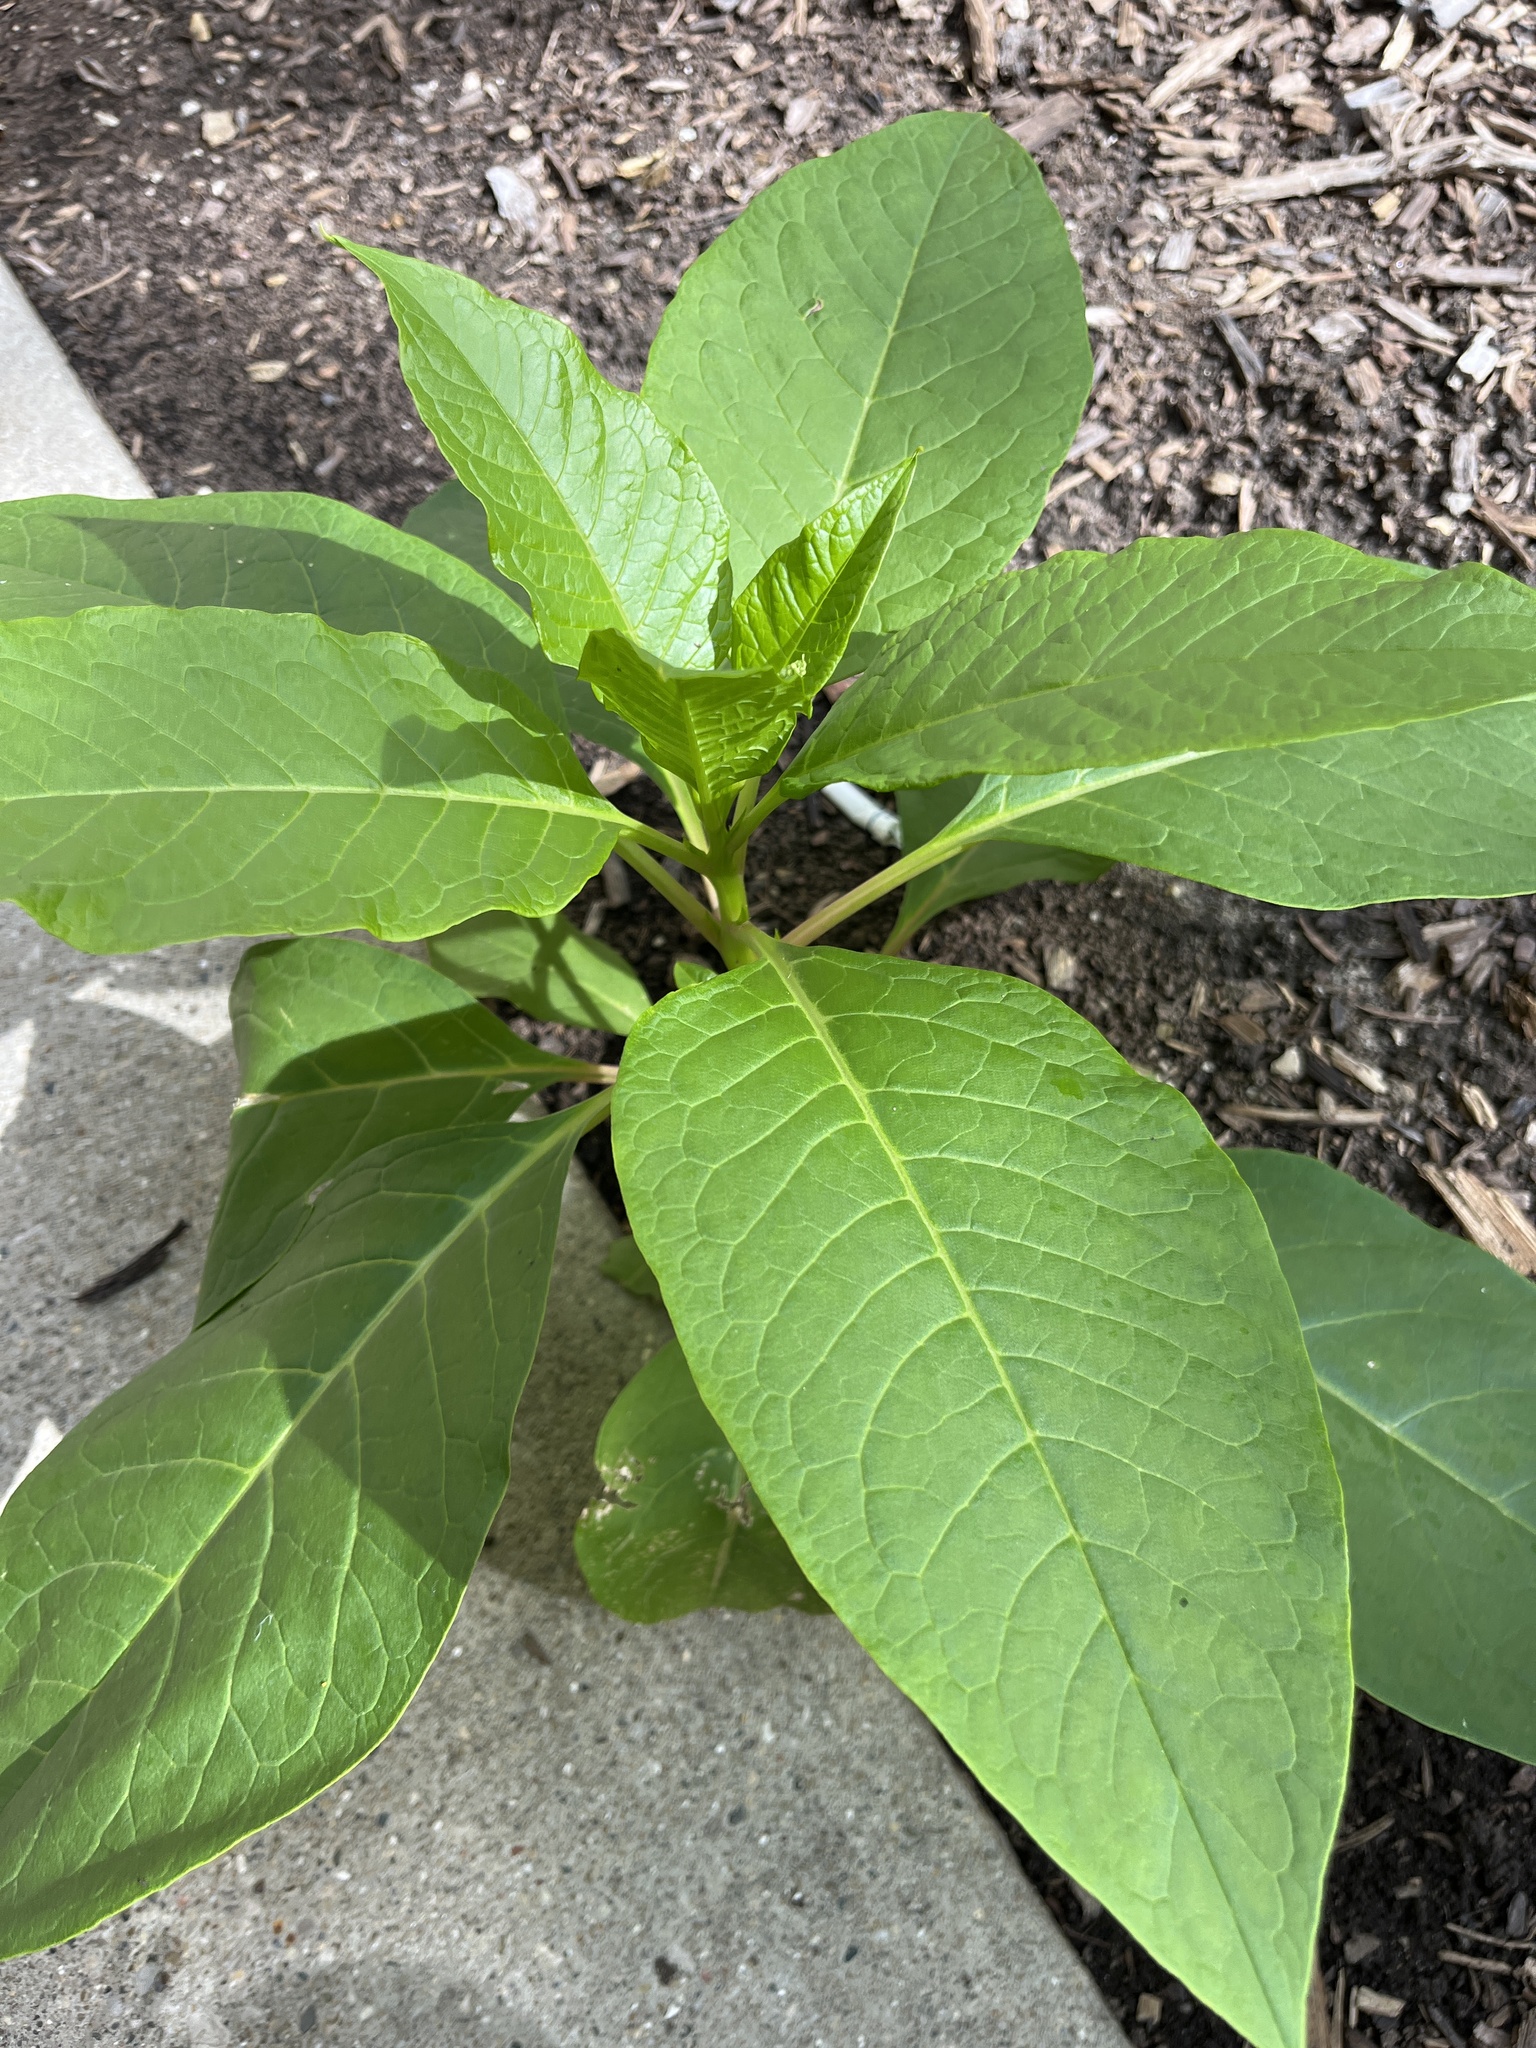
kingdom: Plantae
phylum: Tracheophyta
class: Magnoliopsida
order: Caryophyllales
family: Phytolaccaceae
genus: Phytolacca
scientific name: Phytolacca americana
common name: American pokeweed
